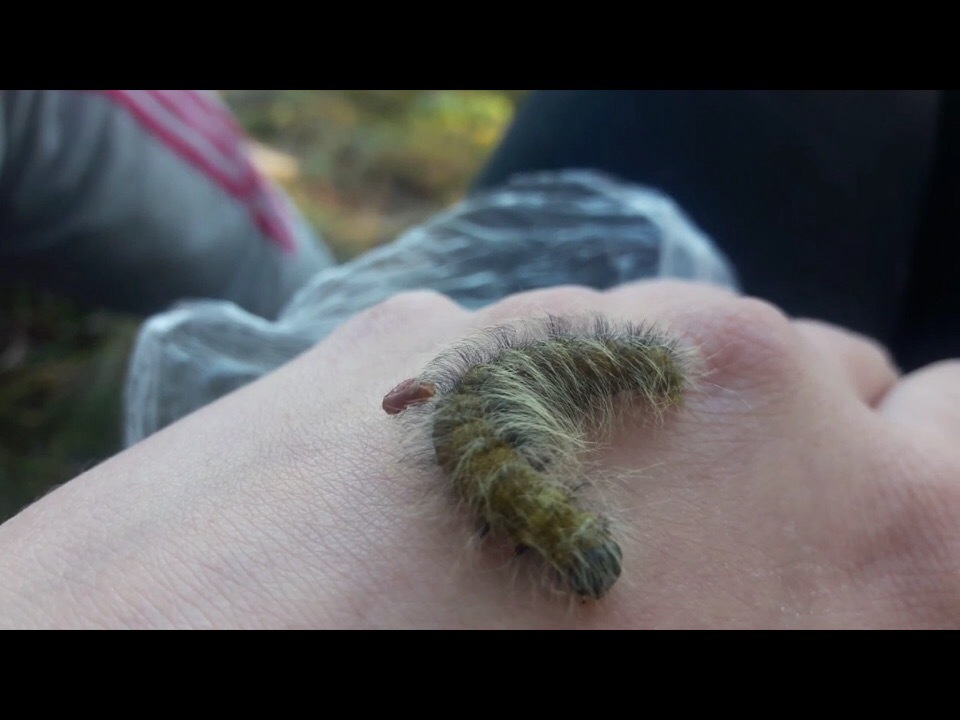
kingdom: Animalia
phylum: Arthropoda
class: Insecta
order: Lepidoptera
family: Noctuidae
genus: Acronicta
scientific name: Acronicta leporina
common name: Miller
